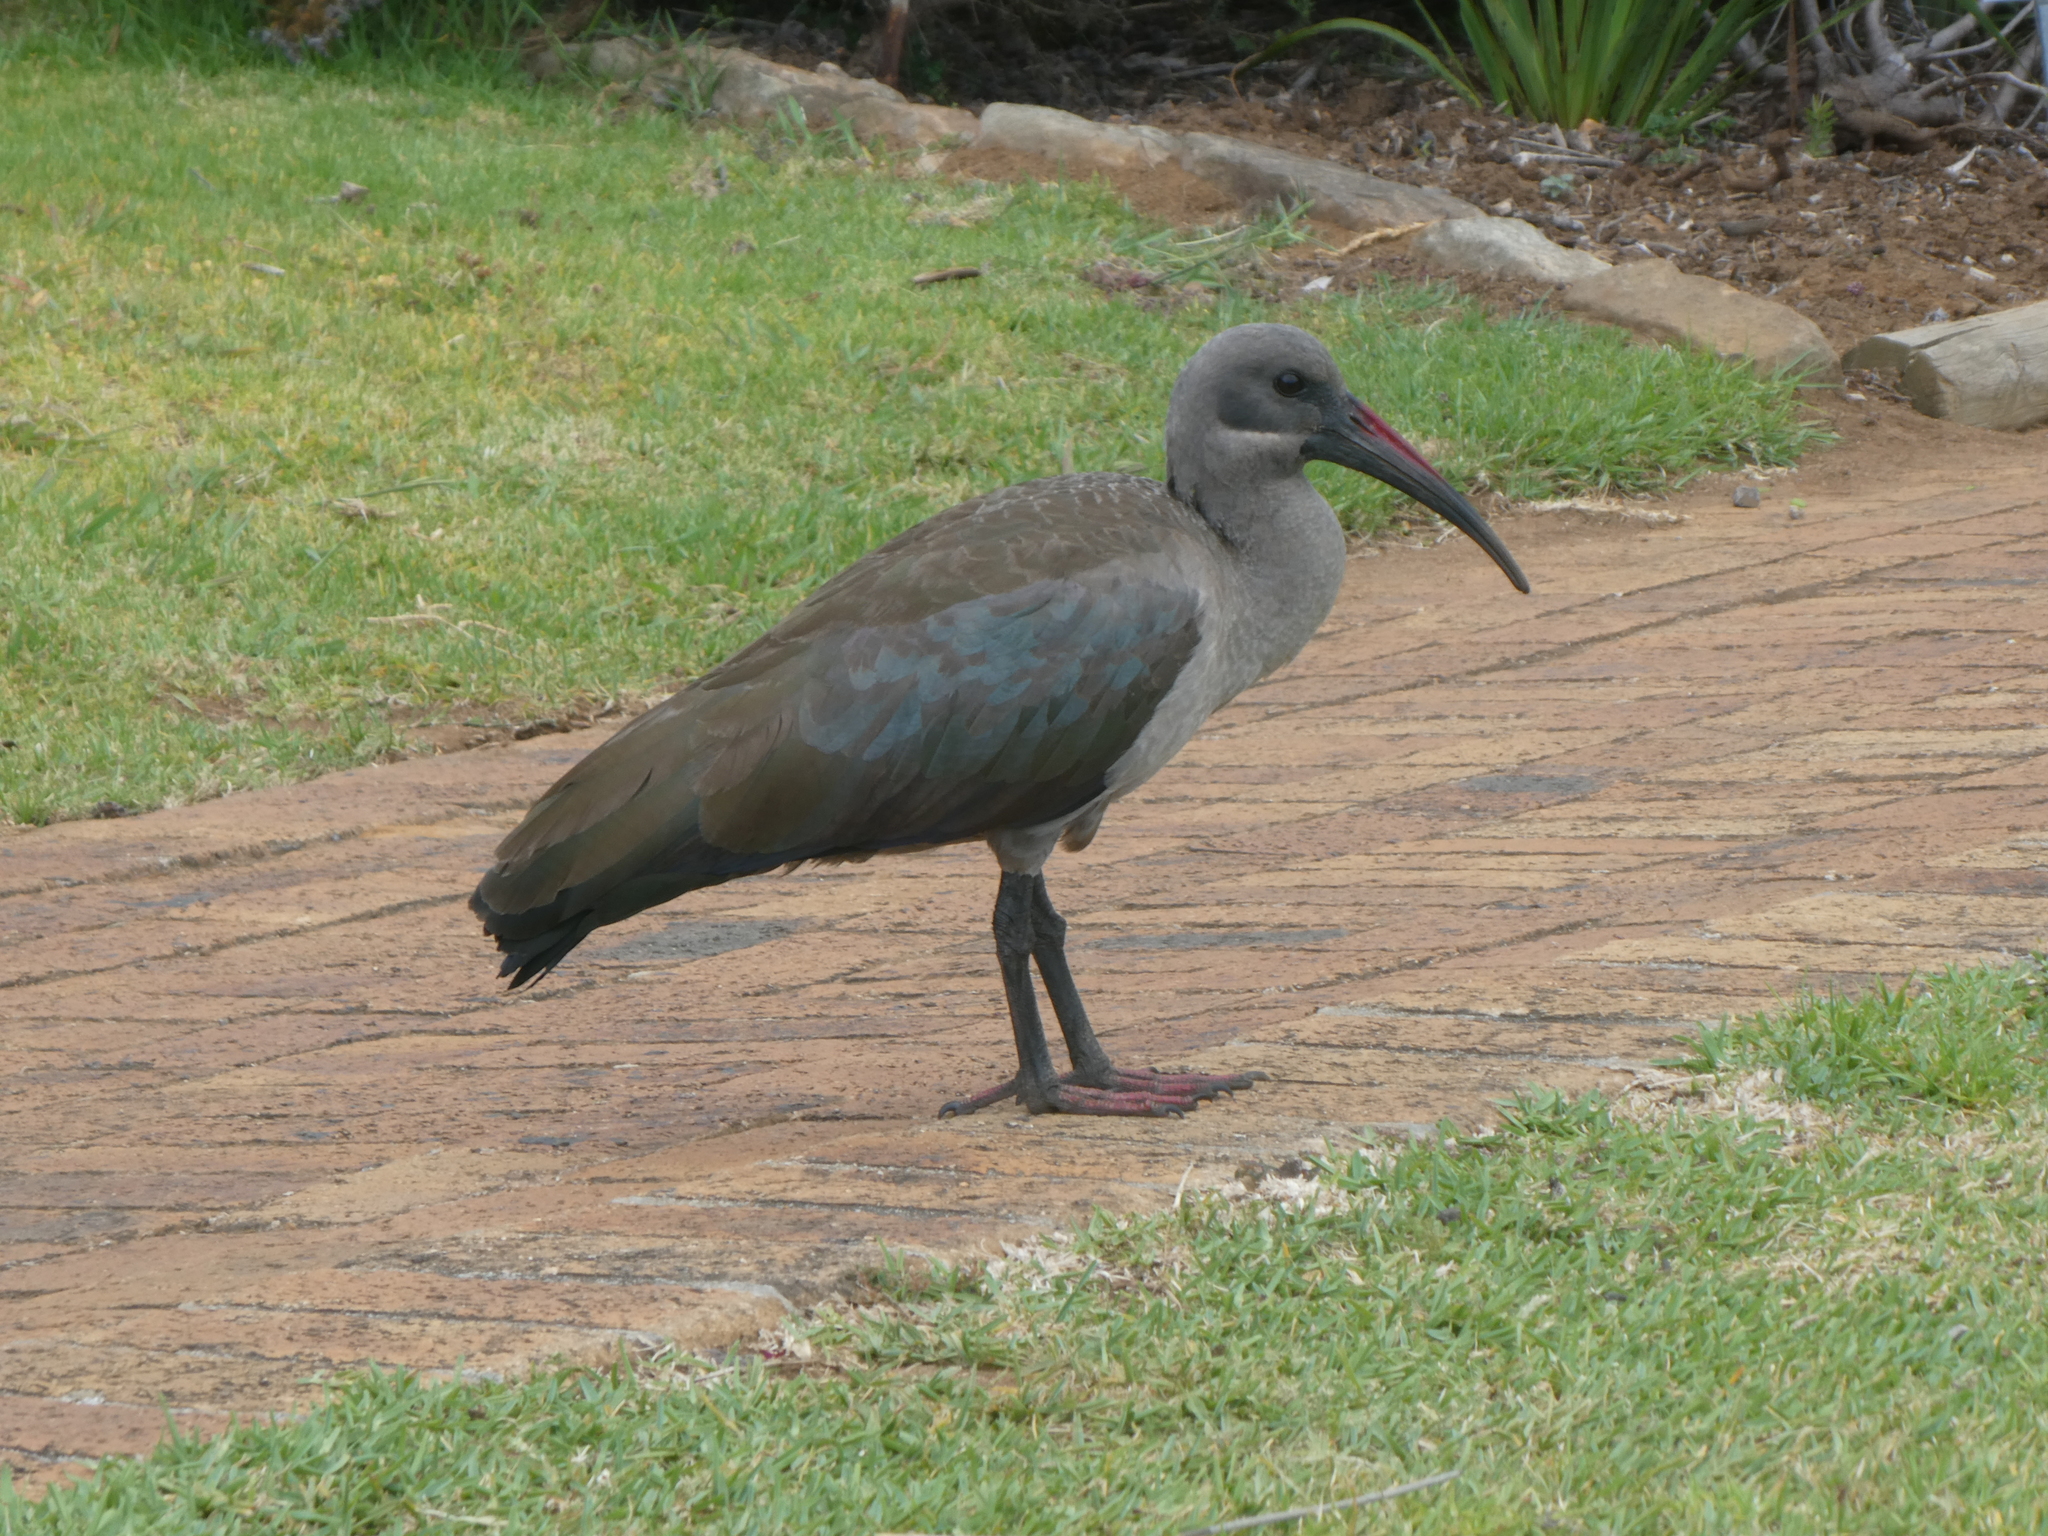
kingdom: Animalia
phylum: Chordata
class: Aves
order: Pelecaniformes
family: Threskiornithidae
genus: Bostrychia
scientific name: Bostrychia hagedash
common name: Hadada ibis
